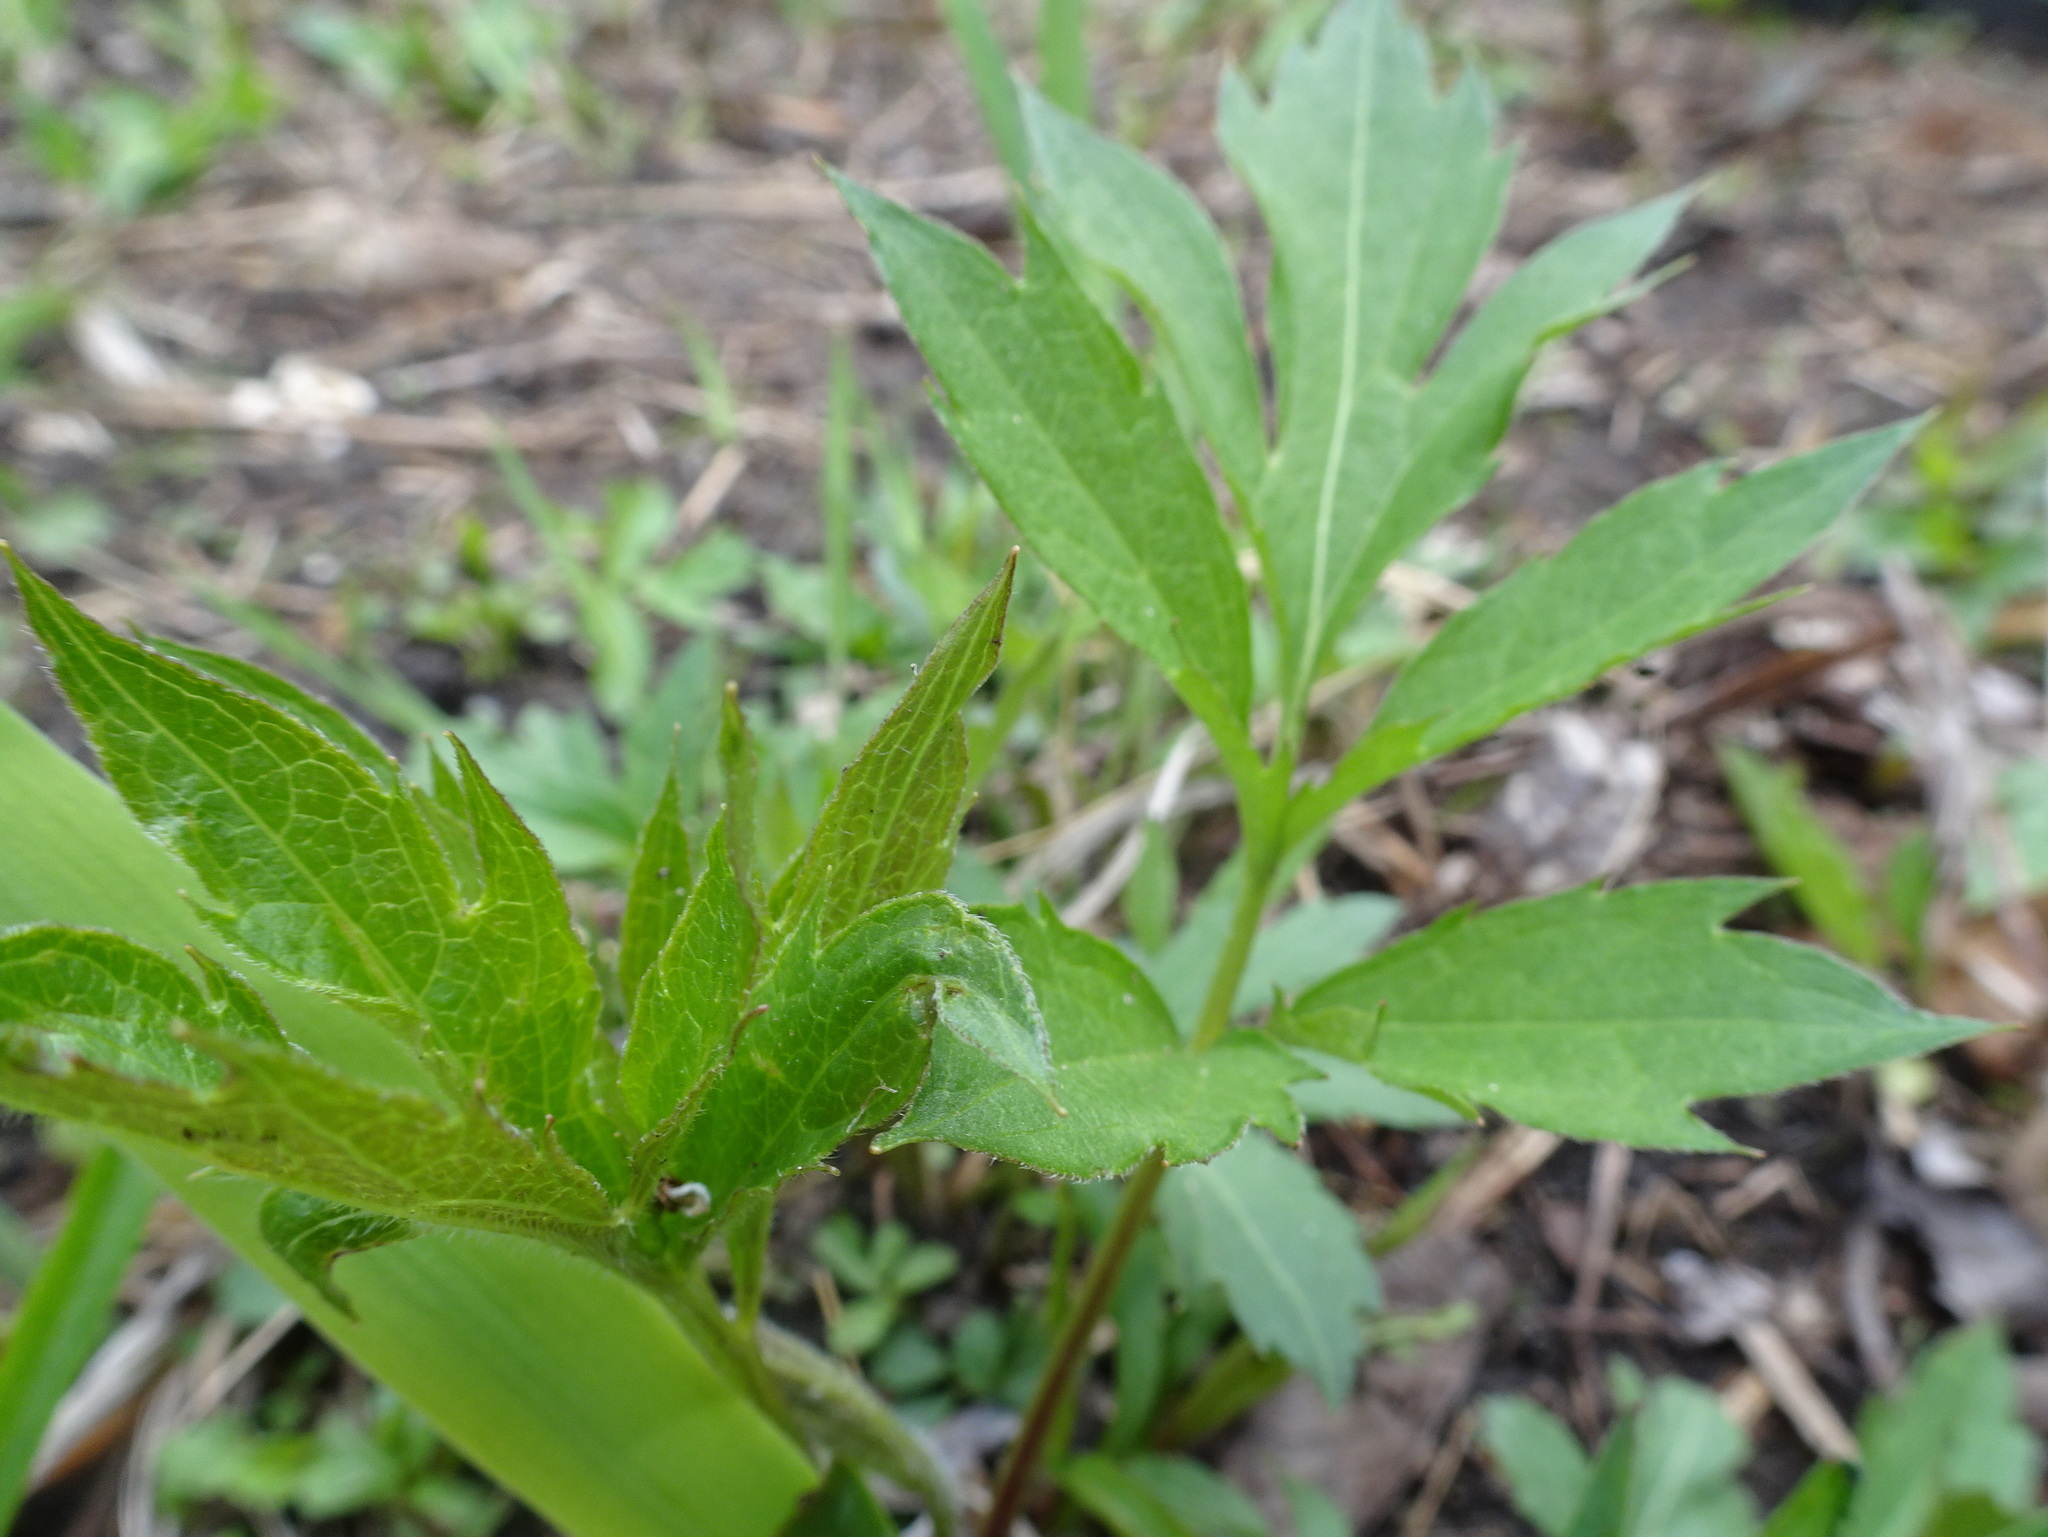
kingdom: Plantae
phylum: Tracheophyta
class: Magnoliopsida
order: Asterales
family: Asteraceae
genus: Rudbeckia
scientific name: Rudbeckia laciniata
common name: Coneflower
